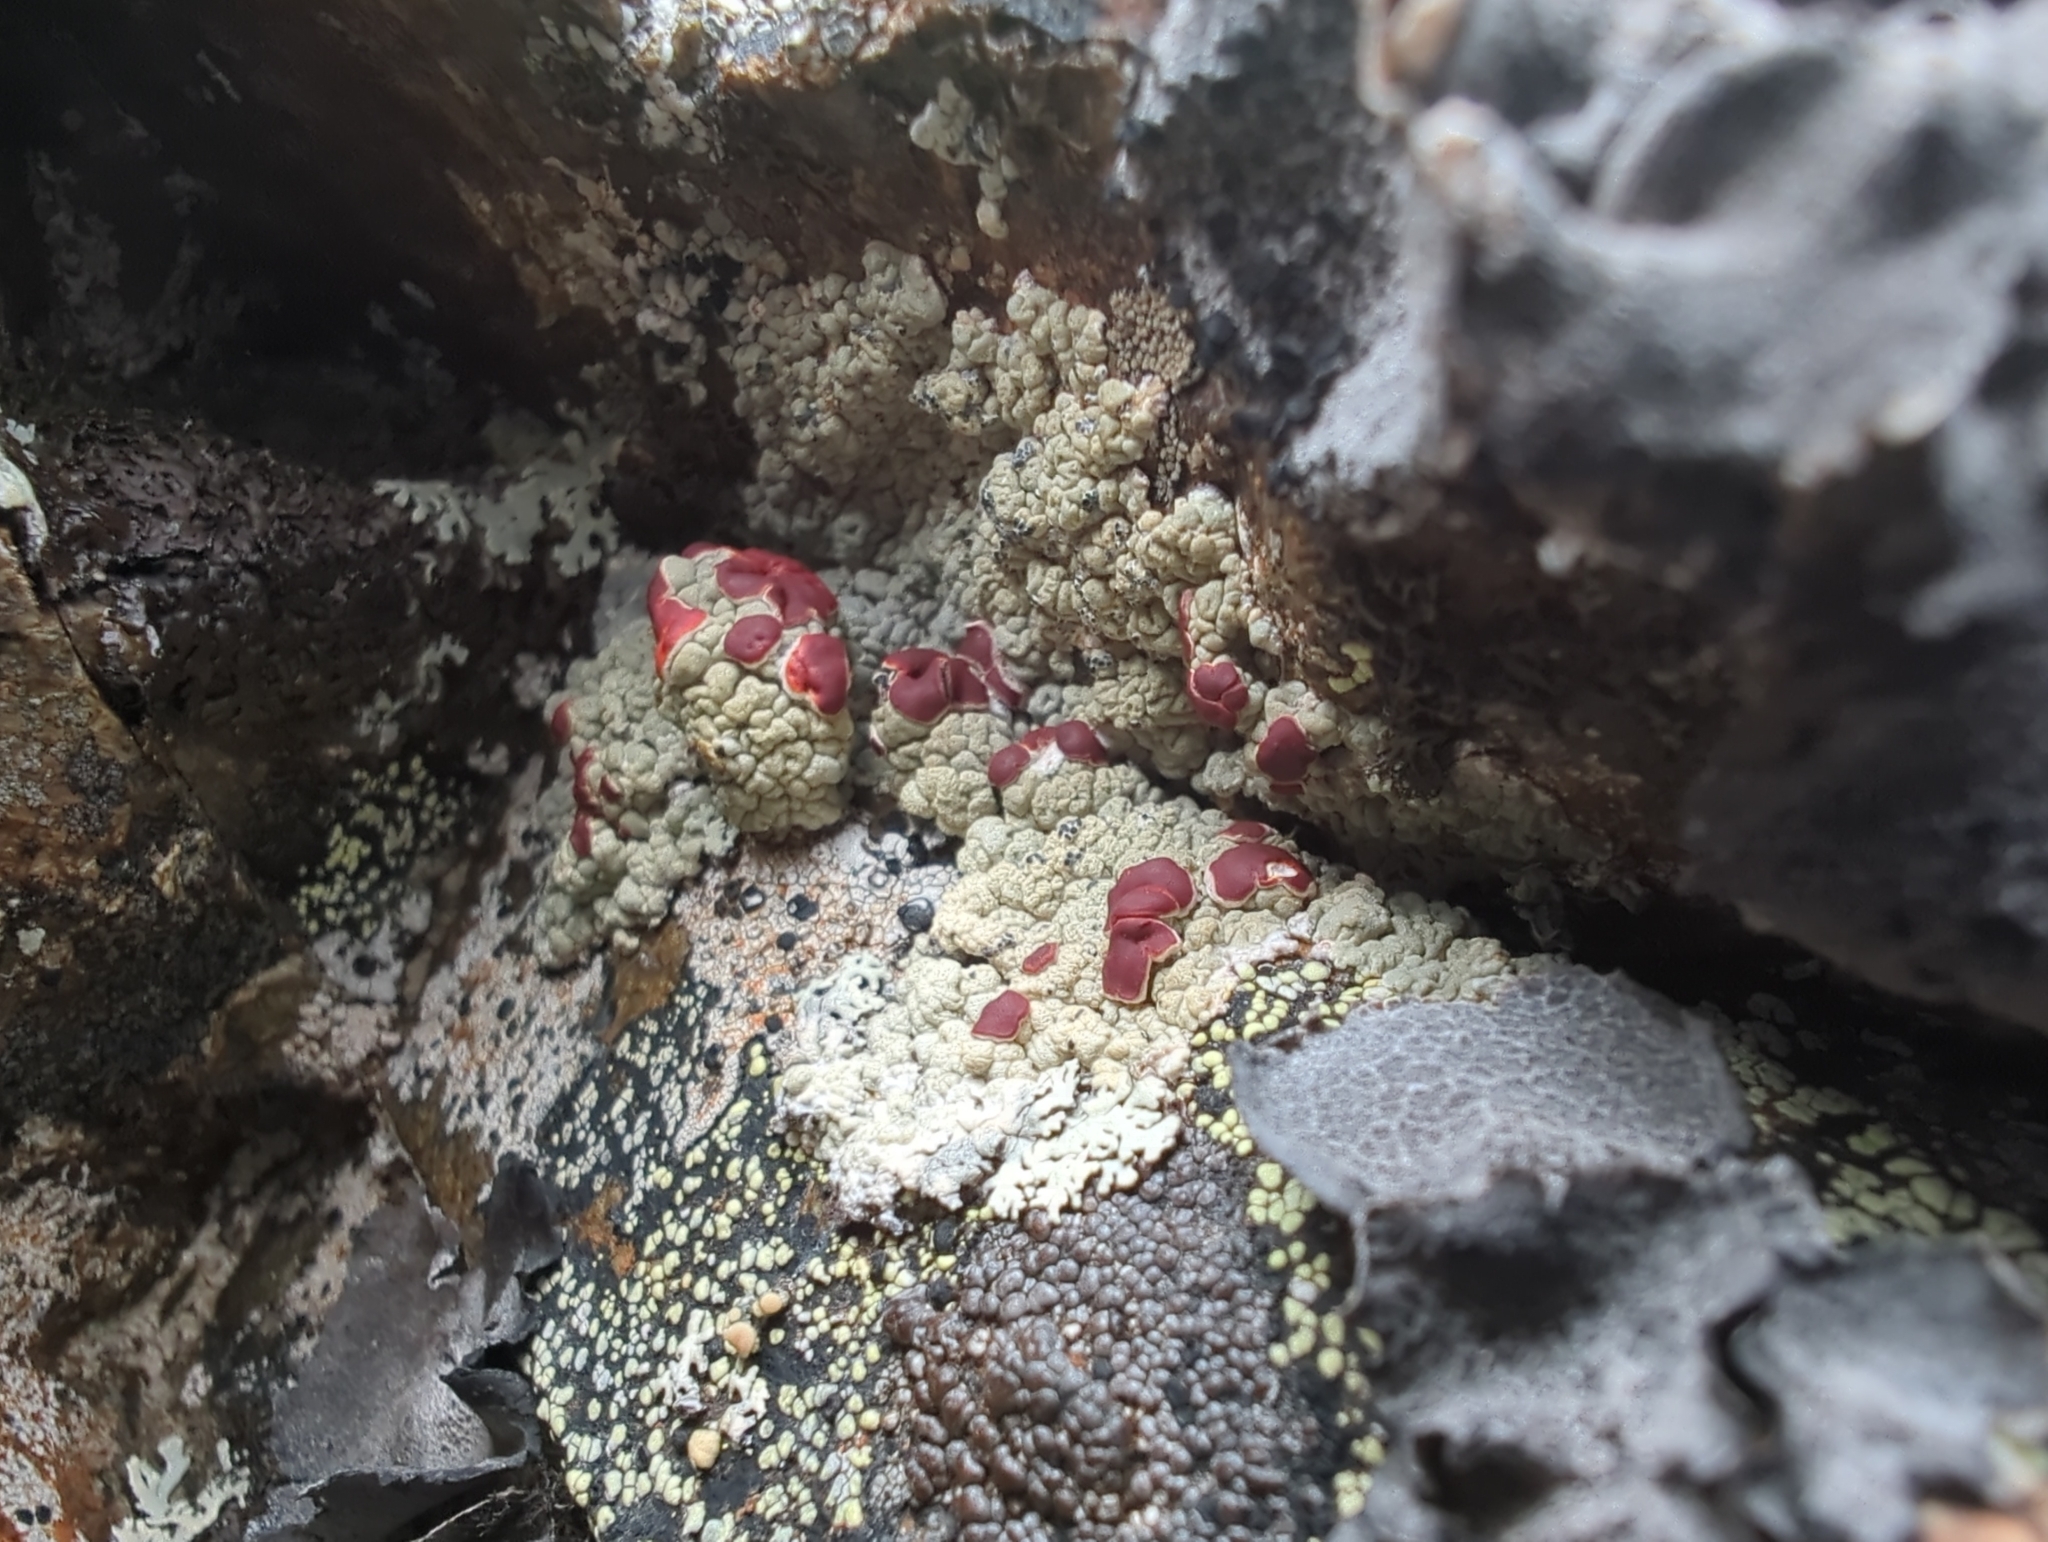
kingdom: Fungi
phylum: Ascomycota
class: Lecanoromycetes
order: Umbilicariales
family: Ophioparmaceae
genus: Ophioparma
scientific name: Ophioparma ventosa
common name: Blood-spot
